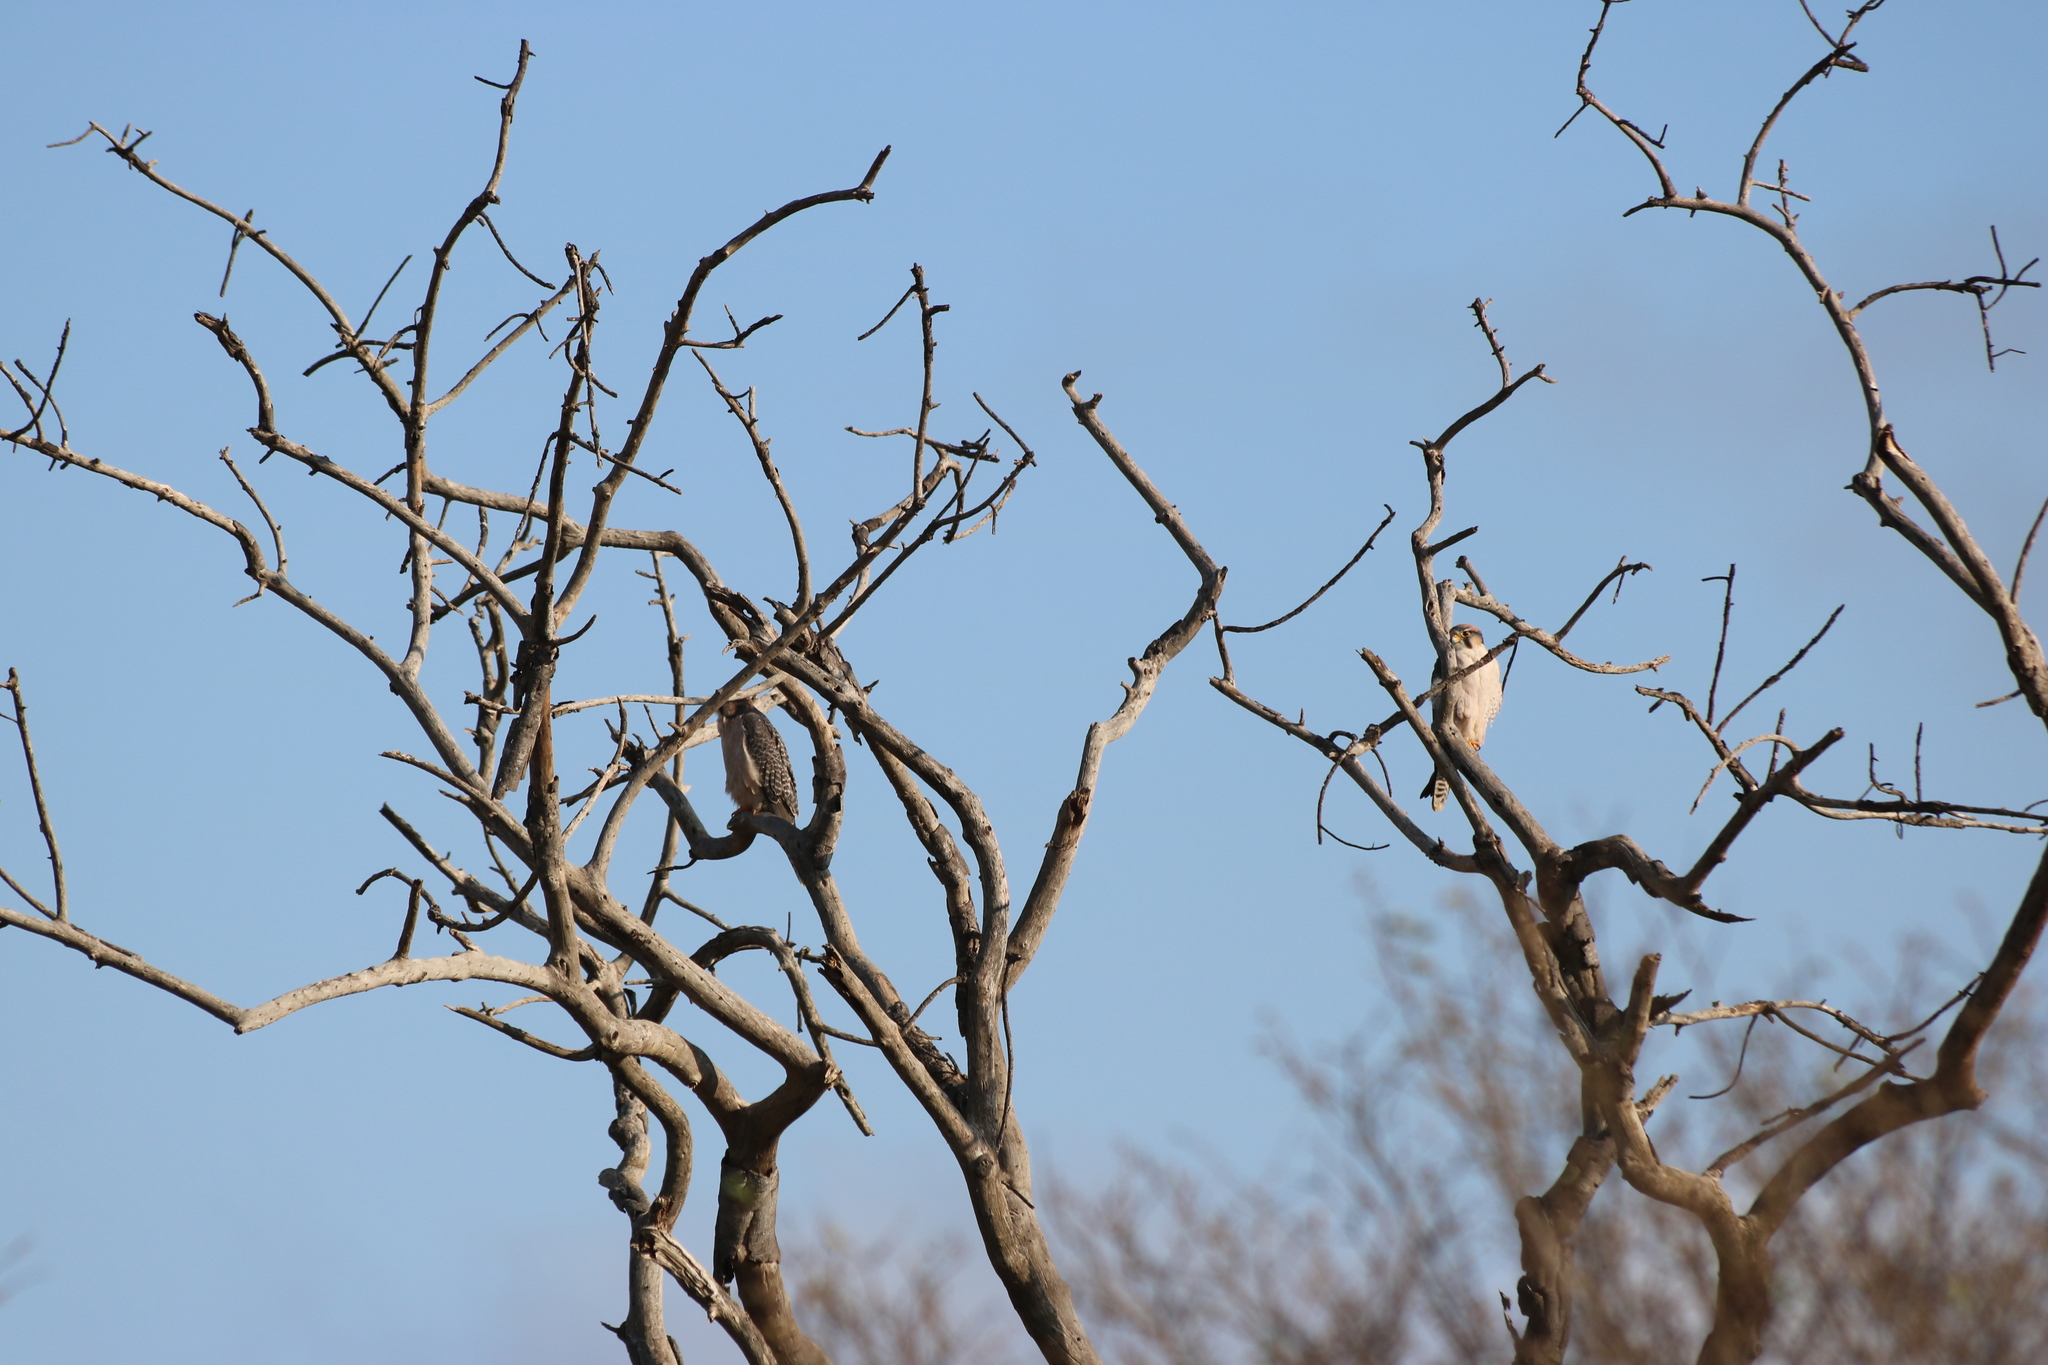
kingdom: Animalia
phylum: Chordata
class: Aves
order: Falconiformes
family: Falconidae
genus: Falco
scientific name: Falco biarmicus
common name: Lanner falcon
